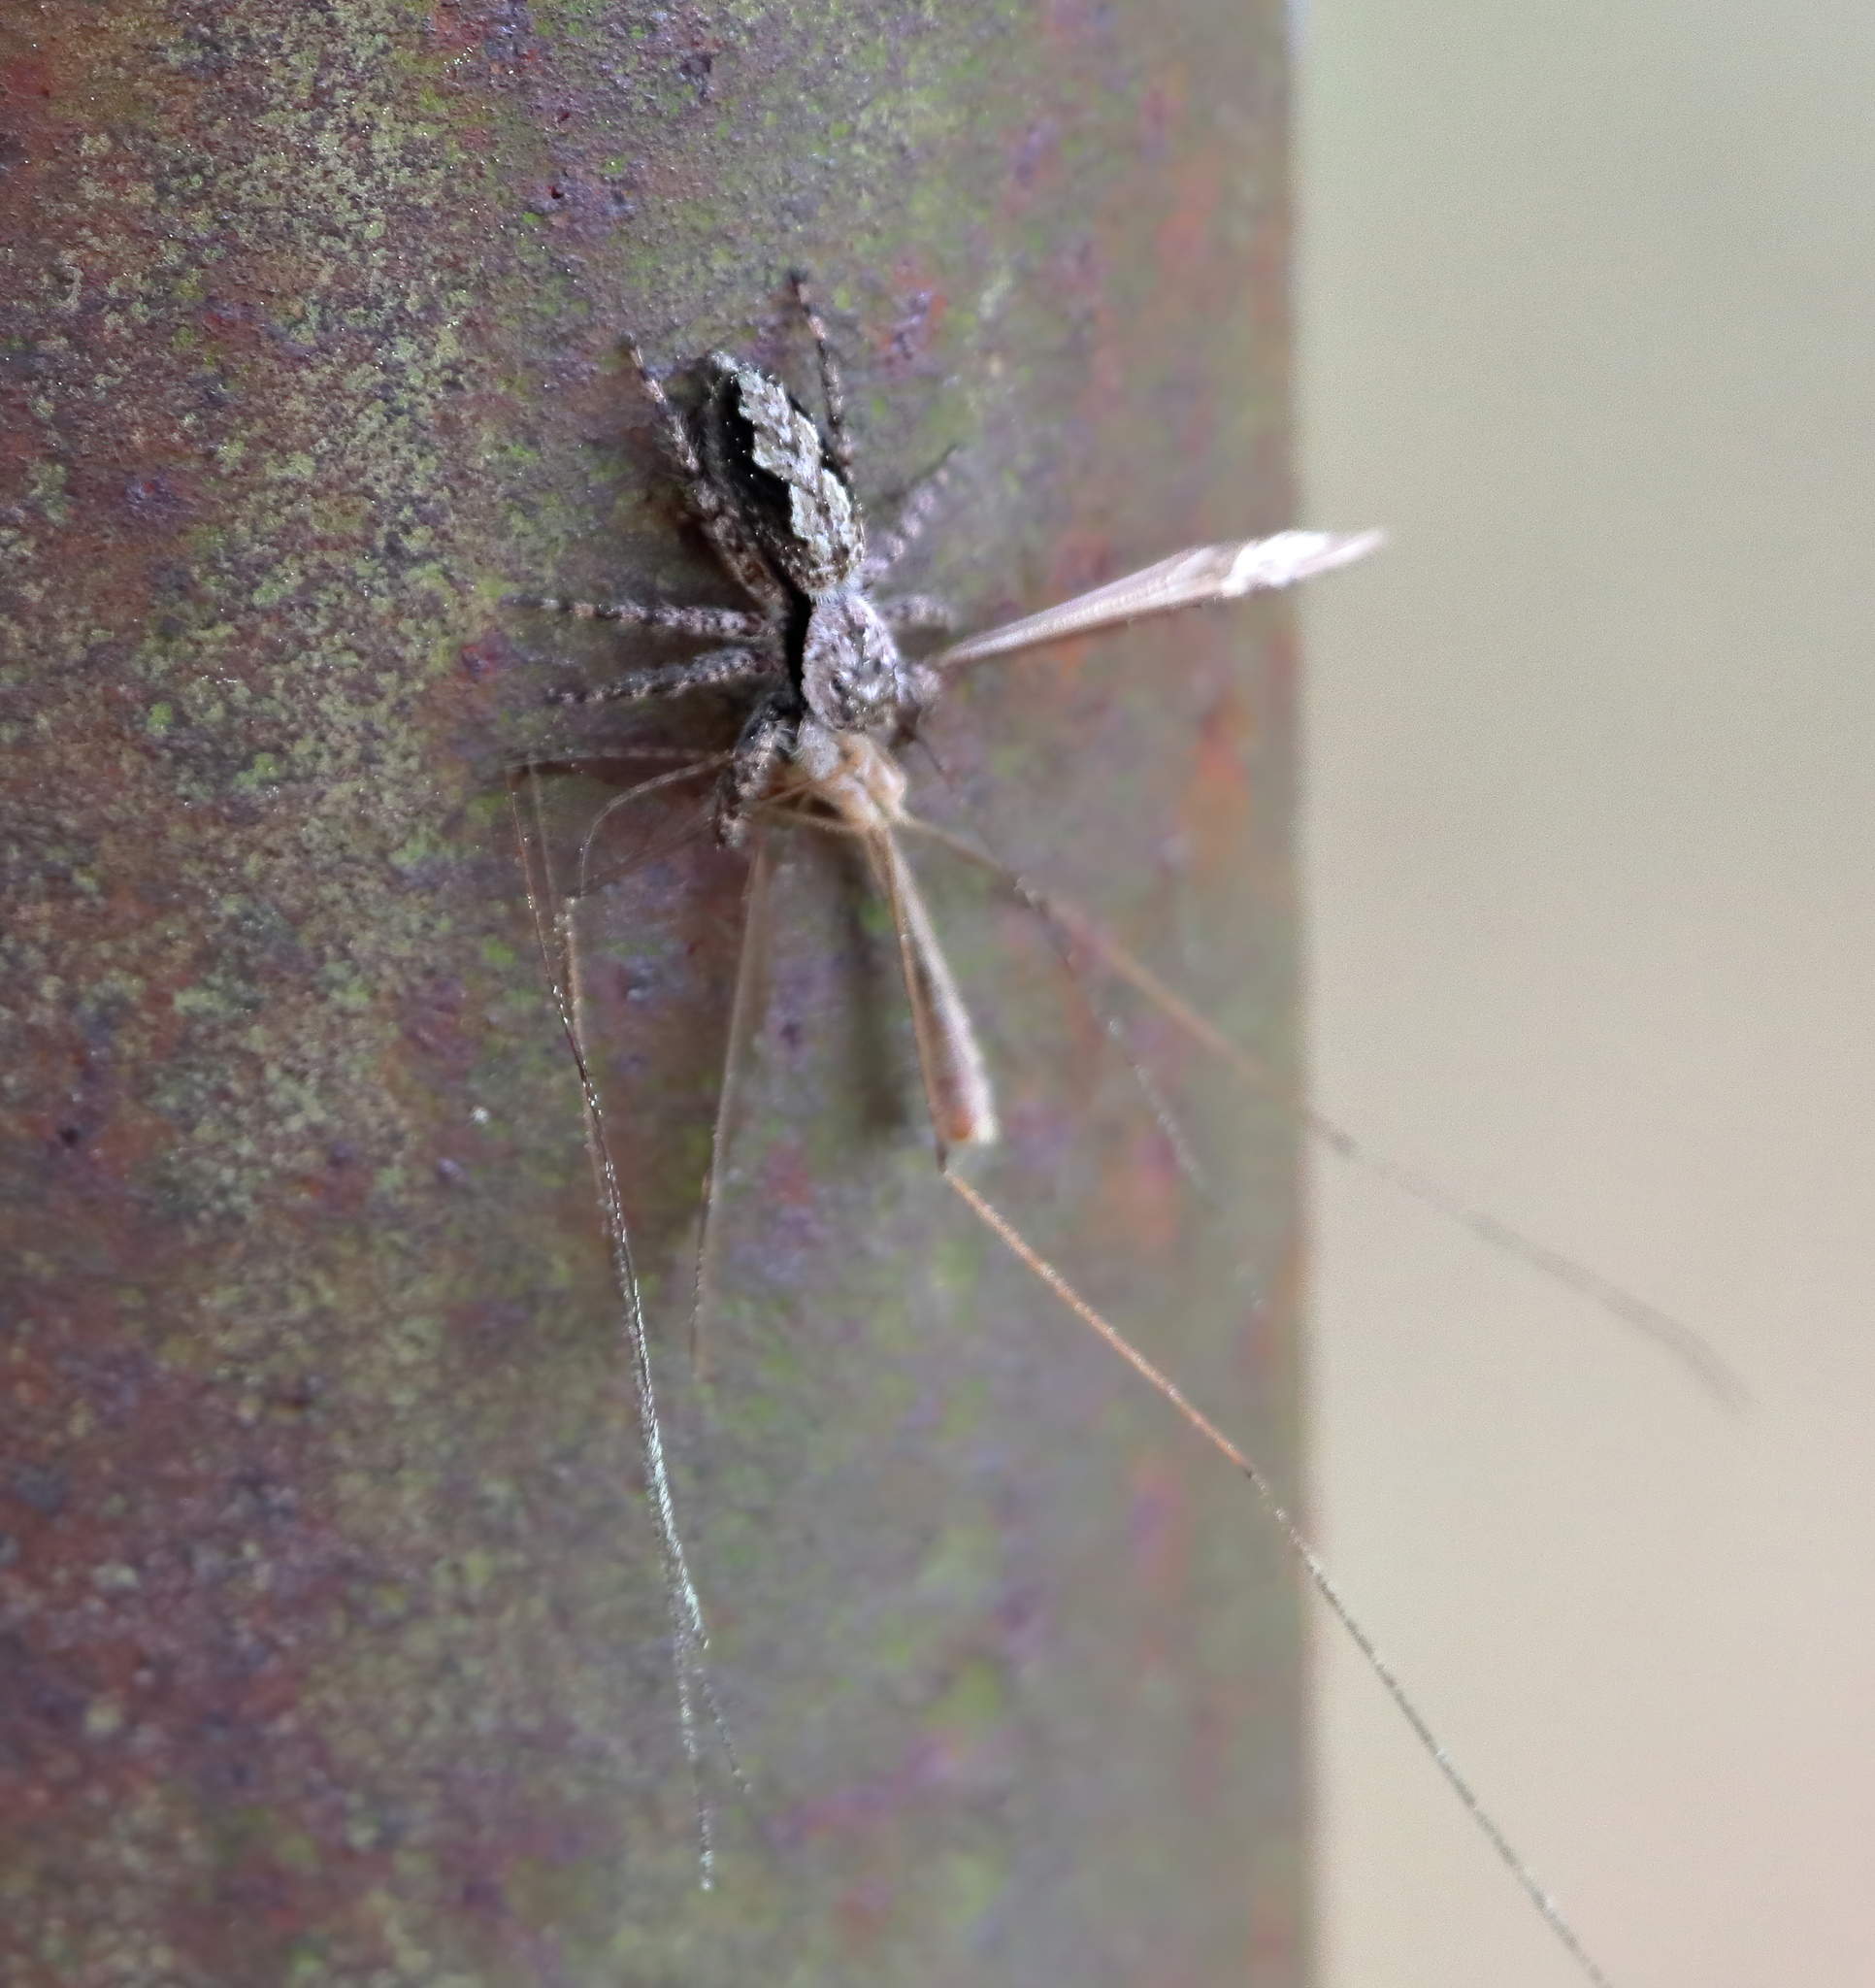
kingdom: Animalia
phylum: Arthropoda
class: Arachnida
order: Araneae
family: Salticidae
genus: Platycryptus
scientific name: Platycryptus undatus
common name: Tan jumping spider
